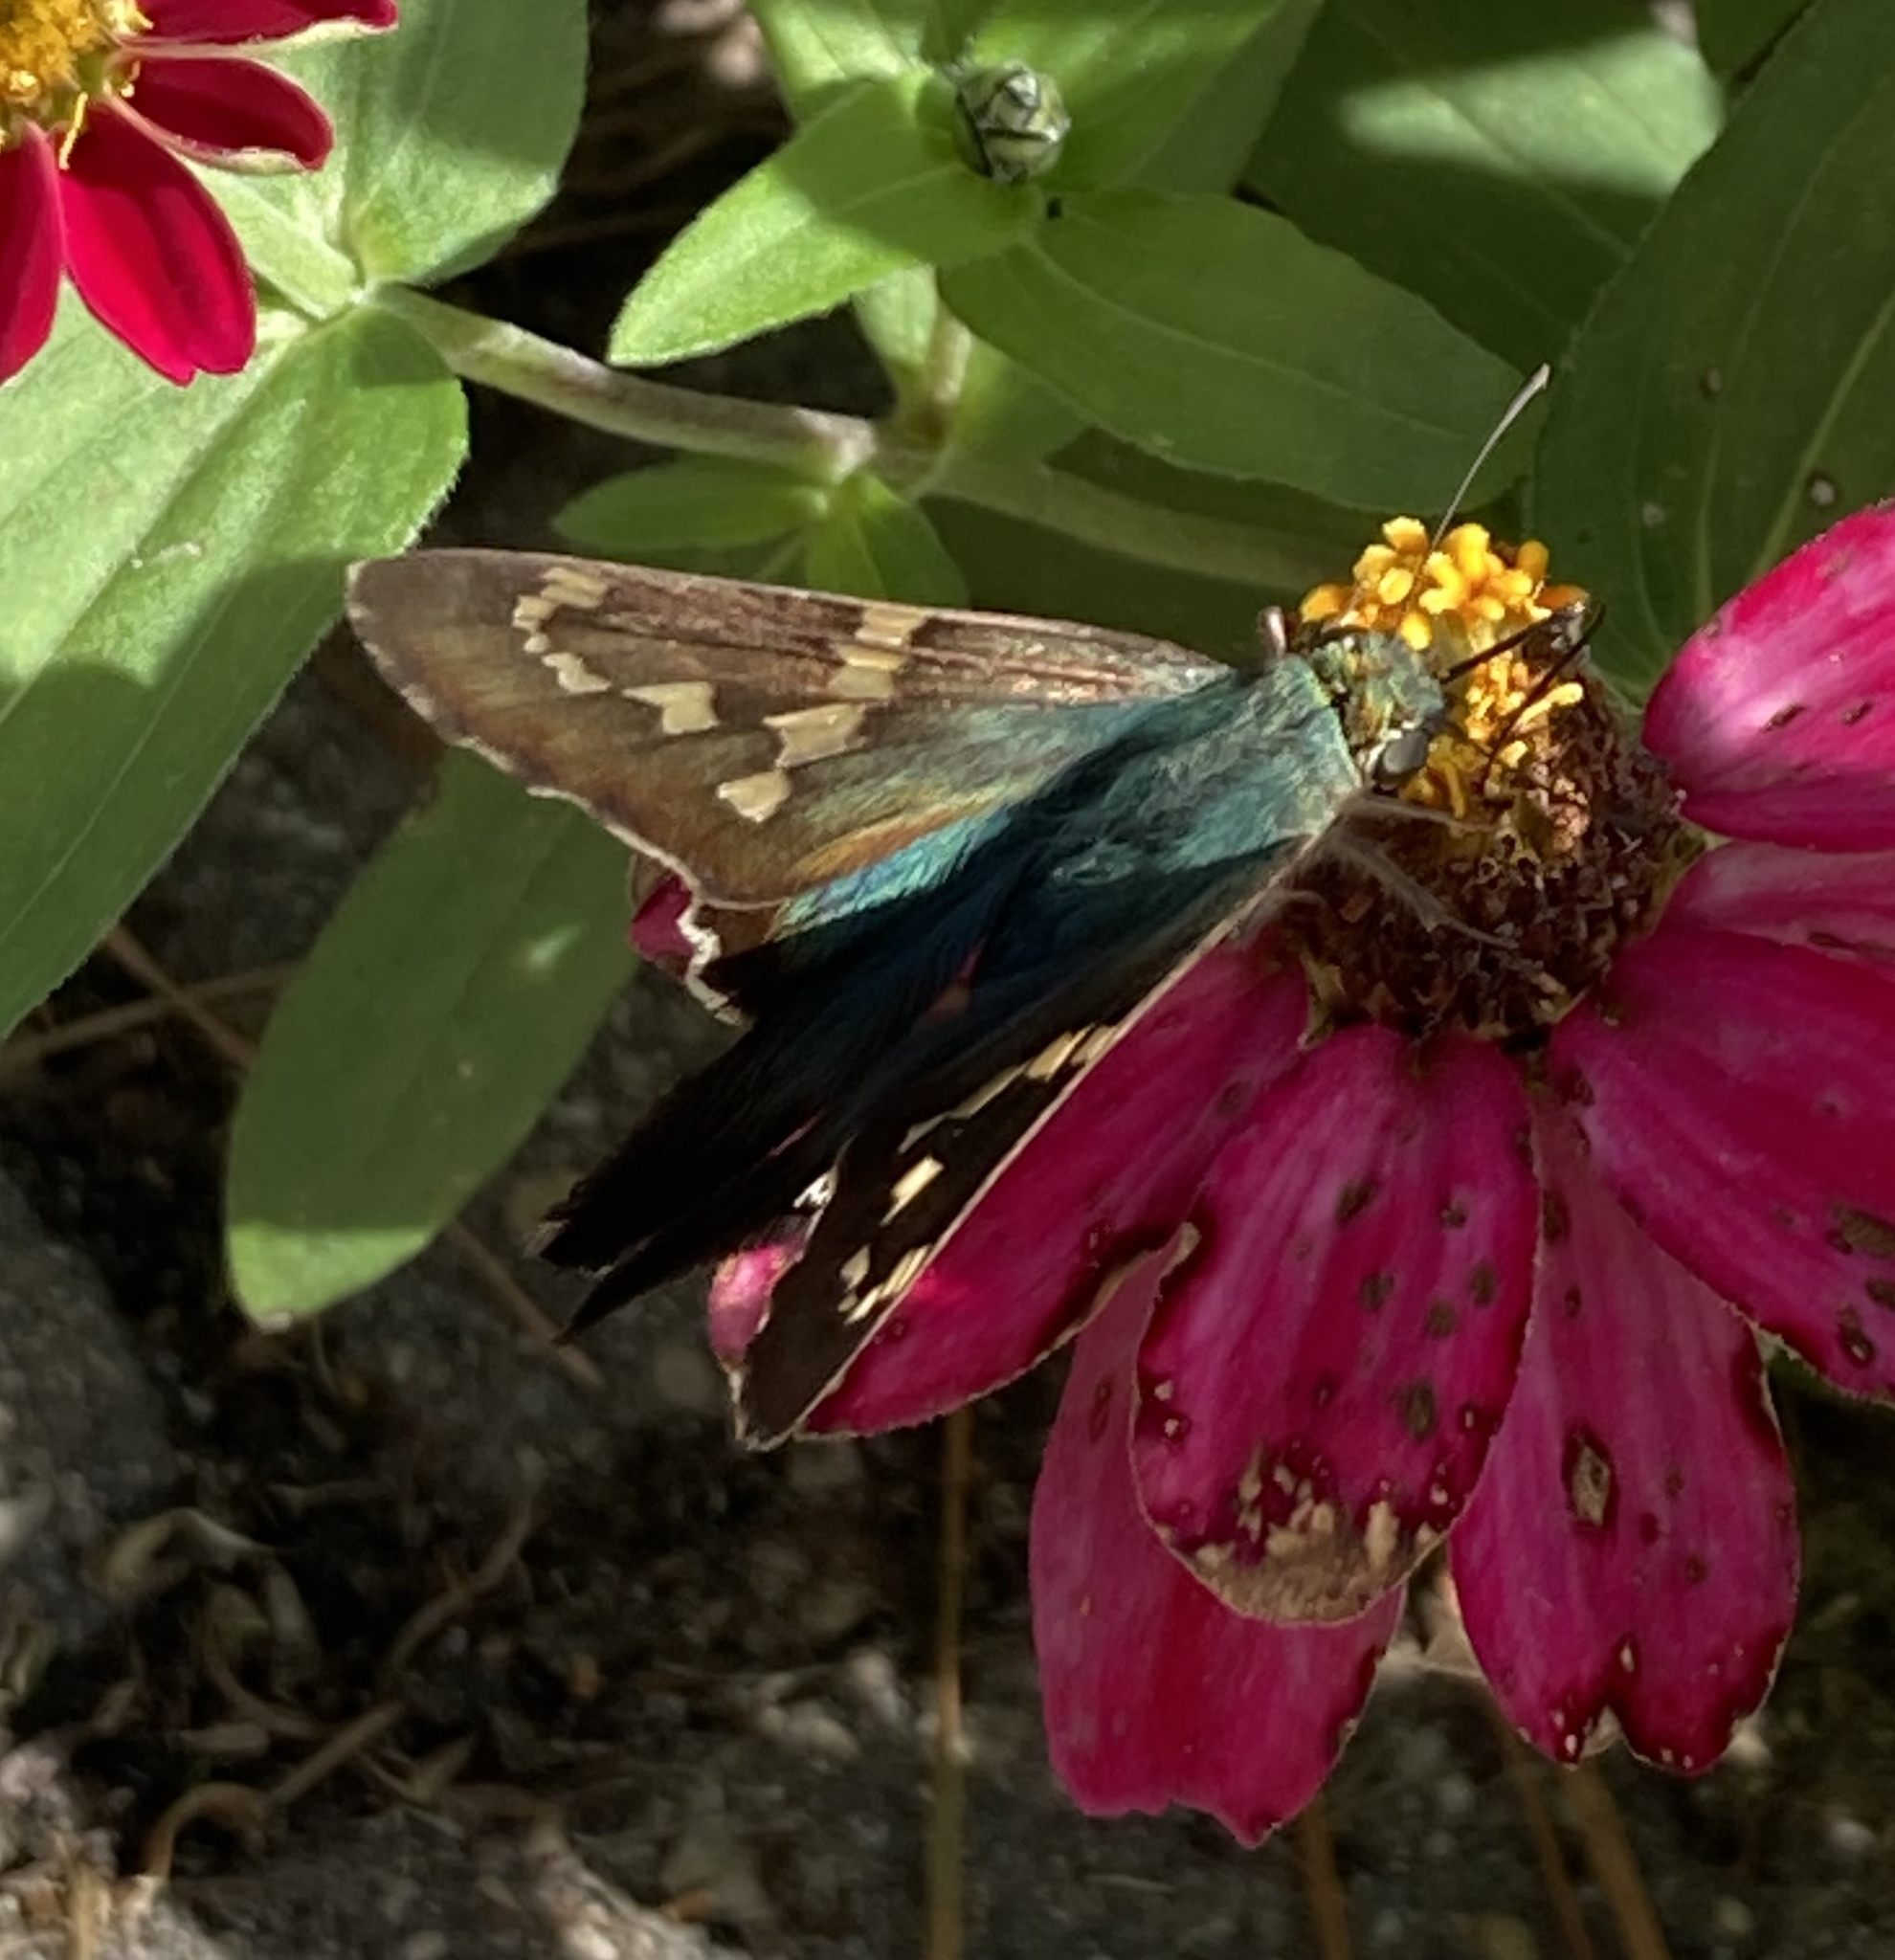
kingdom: Animalia
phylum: Arthropoda
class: Insecta
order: Lepidoptera
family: Hesperiidae
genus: Urbanus
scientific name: Urbanus proteus
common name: Long-tailed skipper
